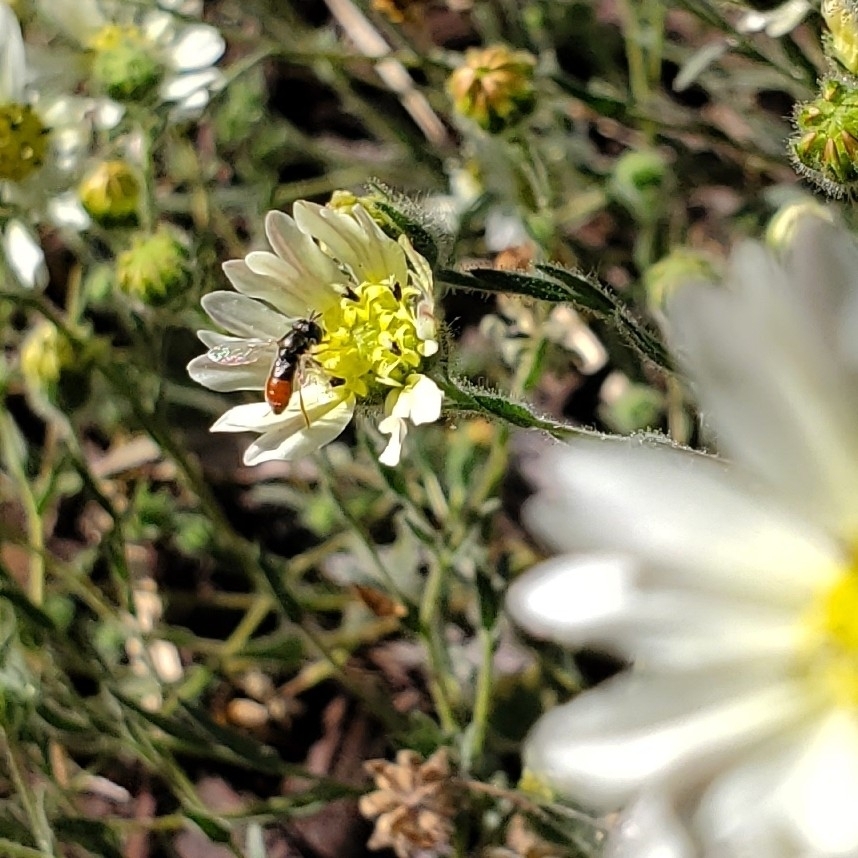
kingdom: Animalia
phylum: Arthropoda
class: Insecta
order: Diptera
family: Syrphidae
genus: Paragus
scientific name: Paragus haemorrhous
